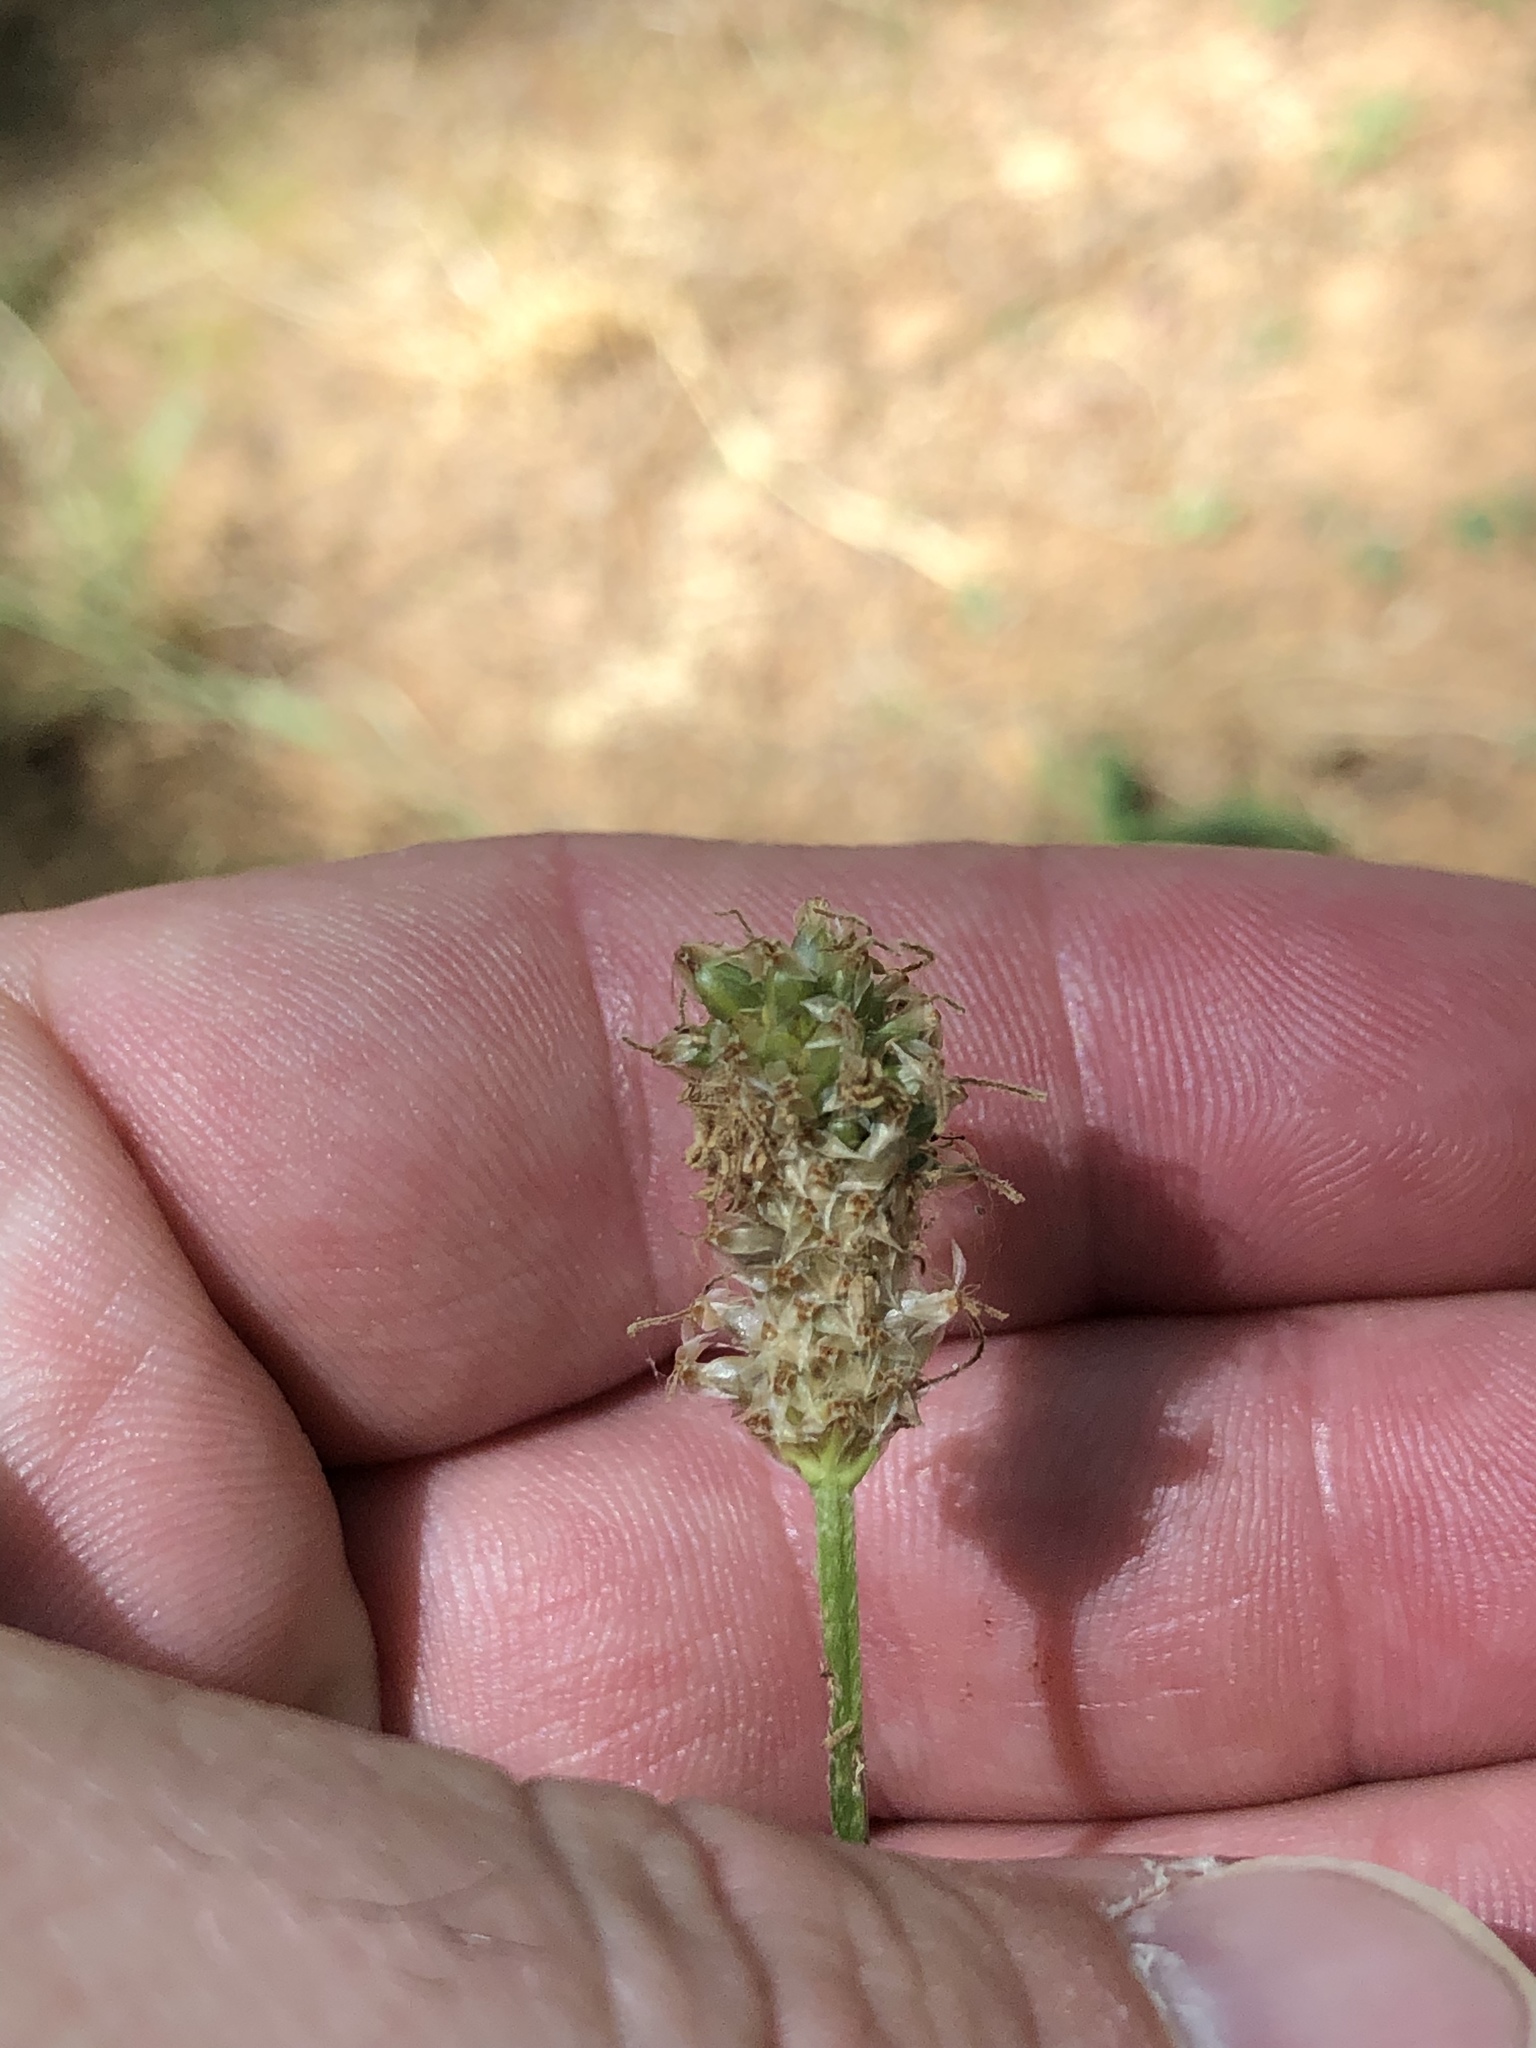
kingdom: Plantae
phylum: Tracheophyta
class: Magnoliopsida
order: Lamiales
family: Plantaginaceae
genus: Plantago
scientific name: Plantago lanceolata
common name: Ribwort plantain
